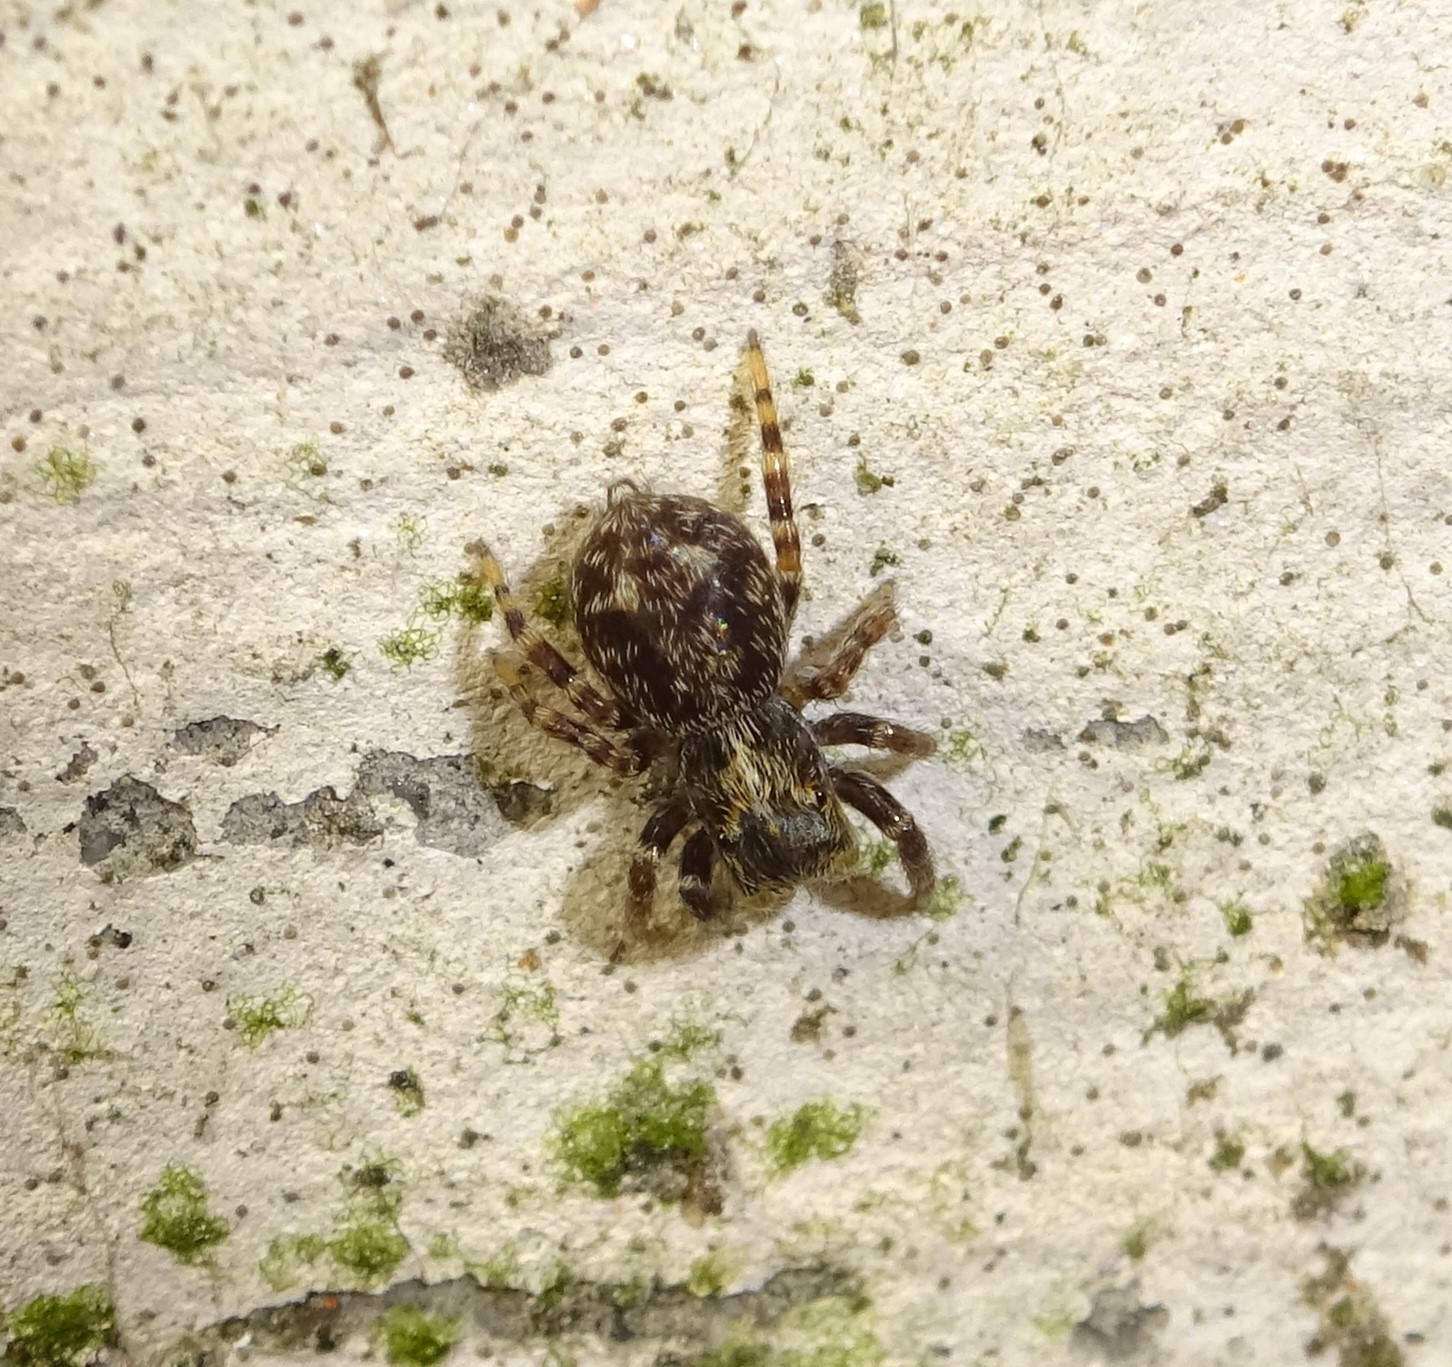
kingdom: Animalia
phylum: Arthropoda
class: Arachnida
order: Araneae
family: Salticidae
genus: Pseudeuophrys
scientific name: Pseudeuophrys
